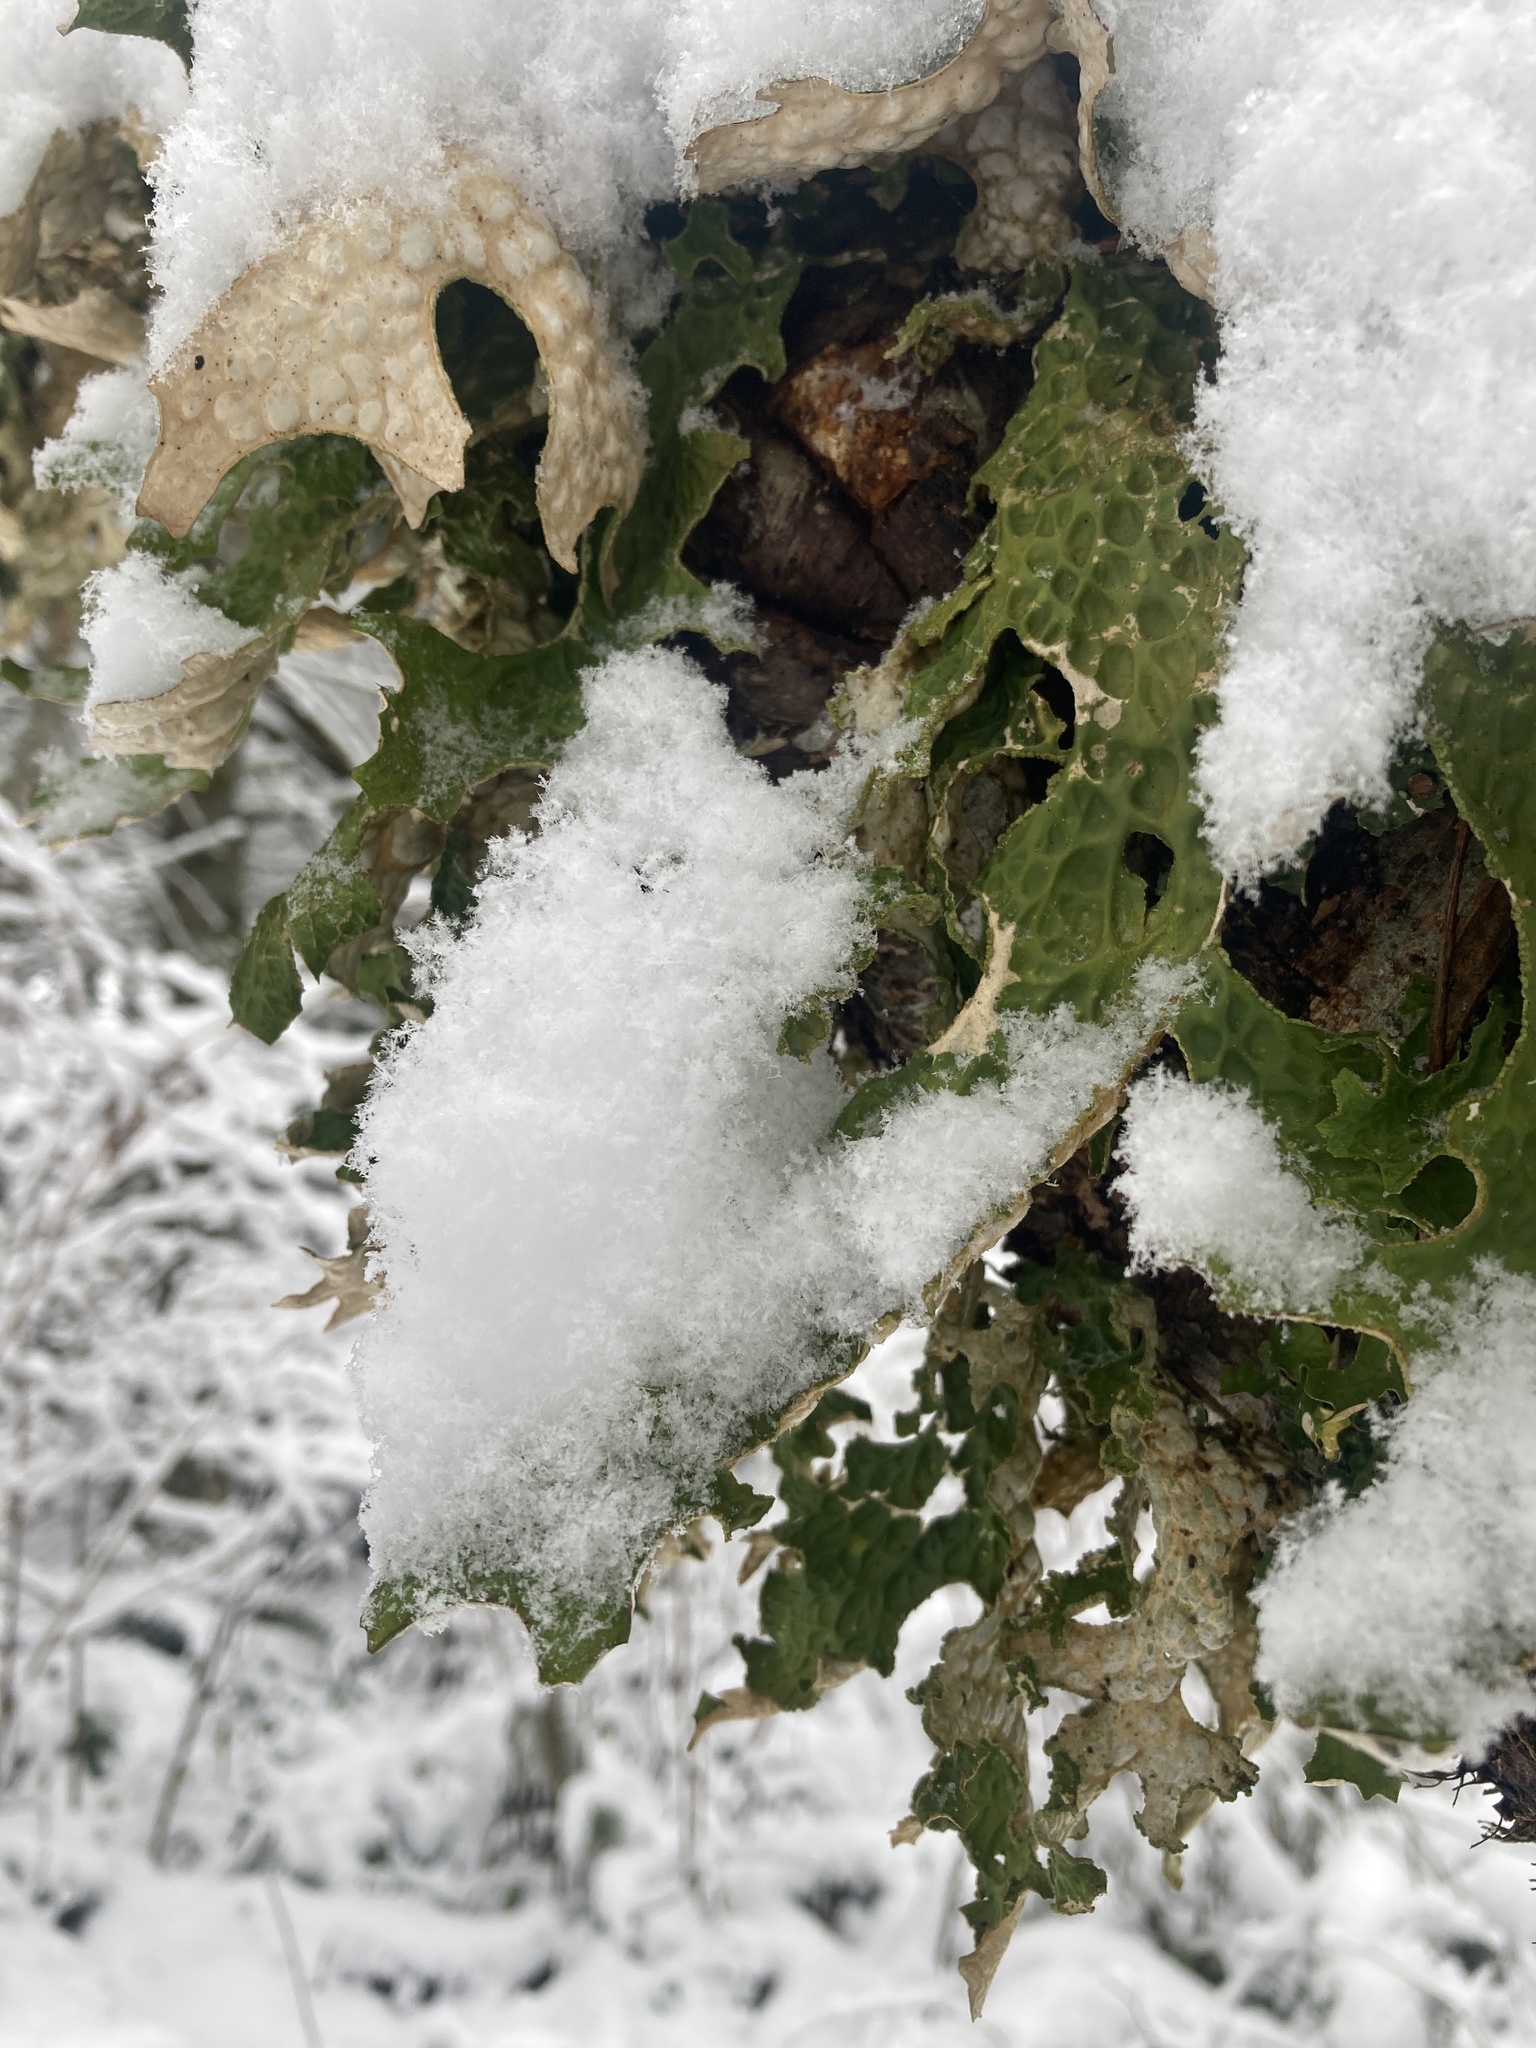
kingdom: Fungi
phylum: Ascomycota
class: Lecanoromycetes
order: Peltigerales
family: Lobariaceae
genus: Lobaria
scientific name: Lobaria pulmonaria
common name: Lungwort
